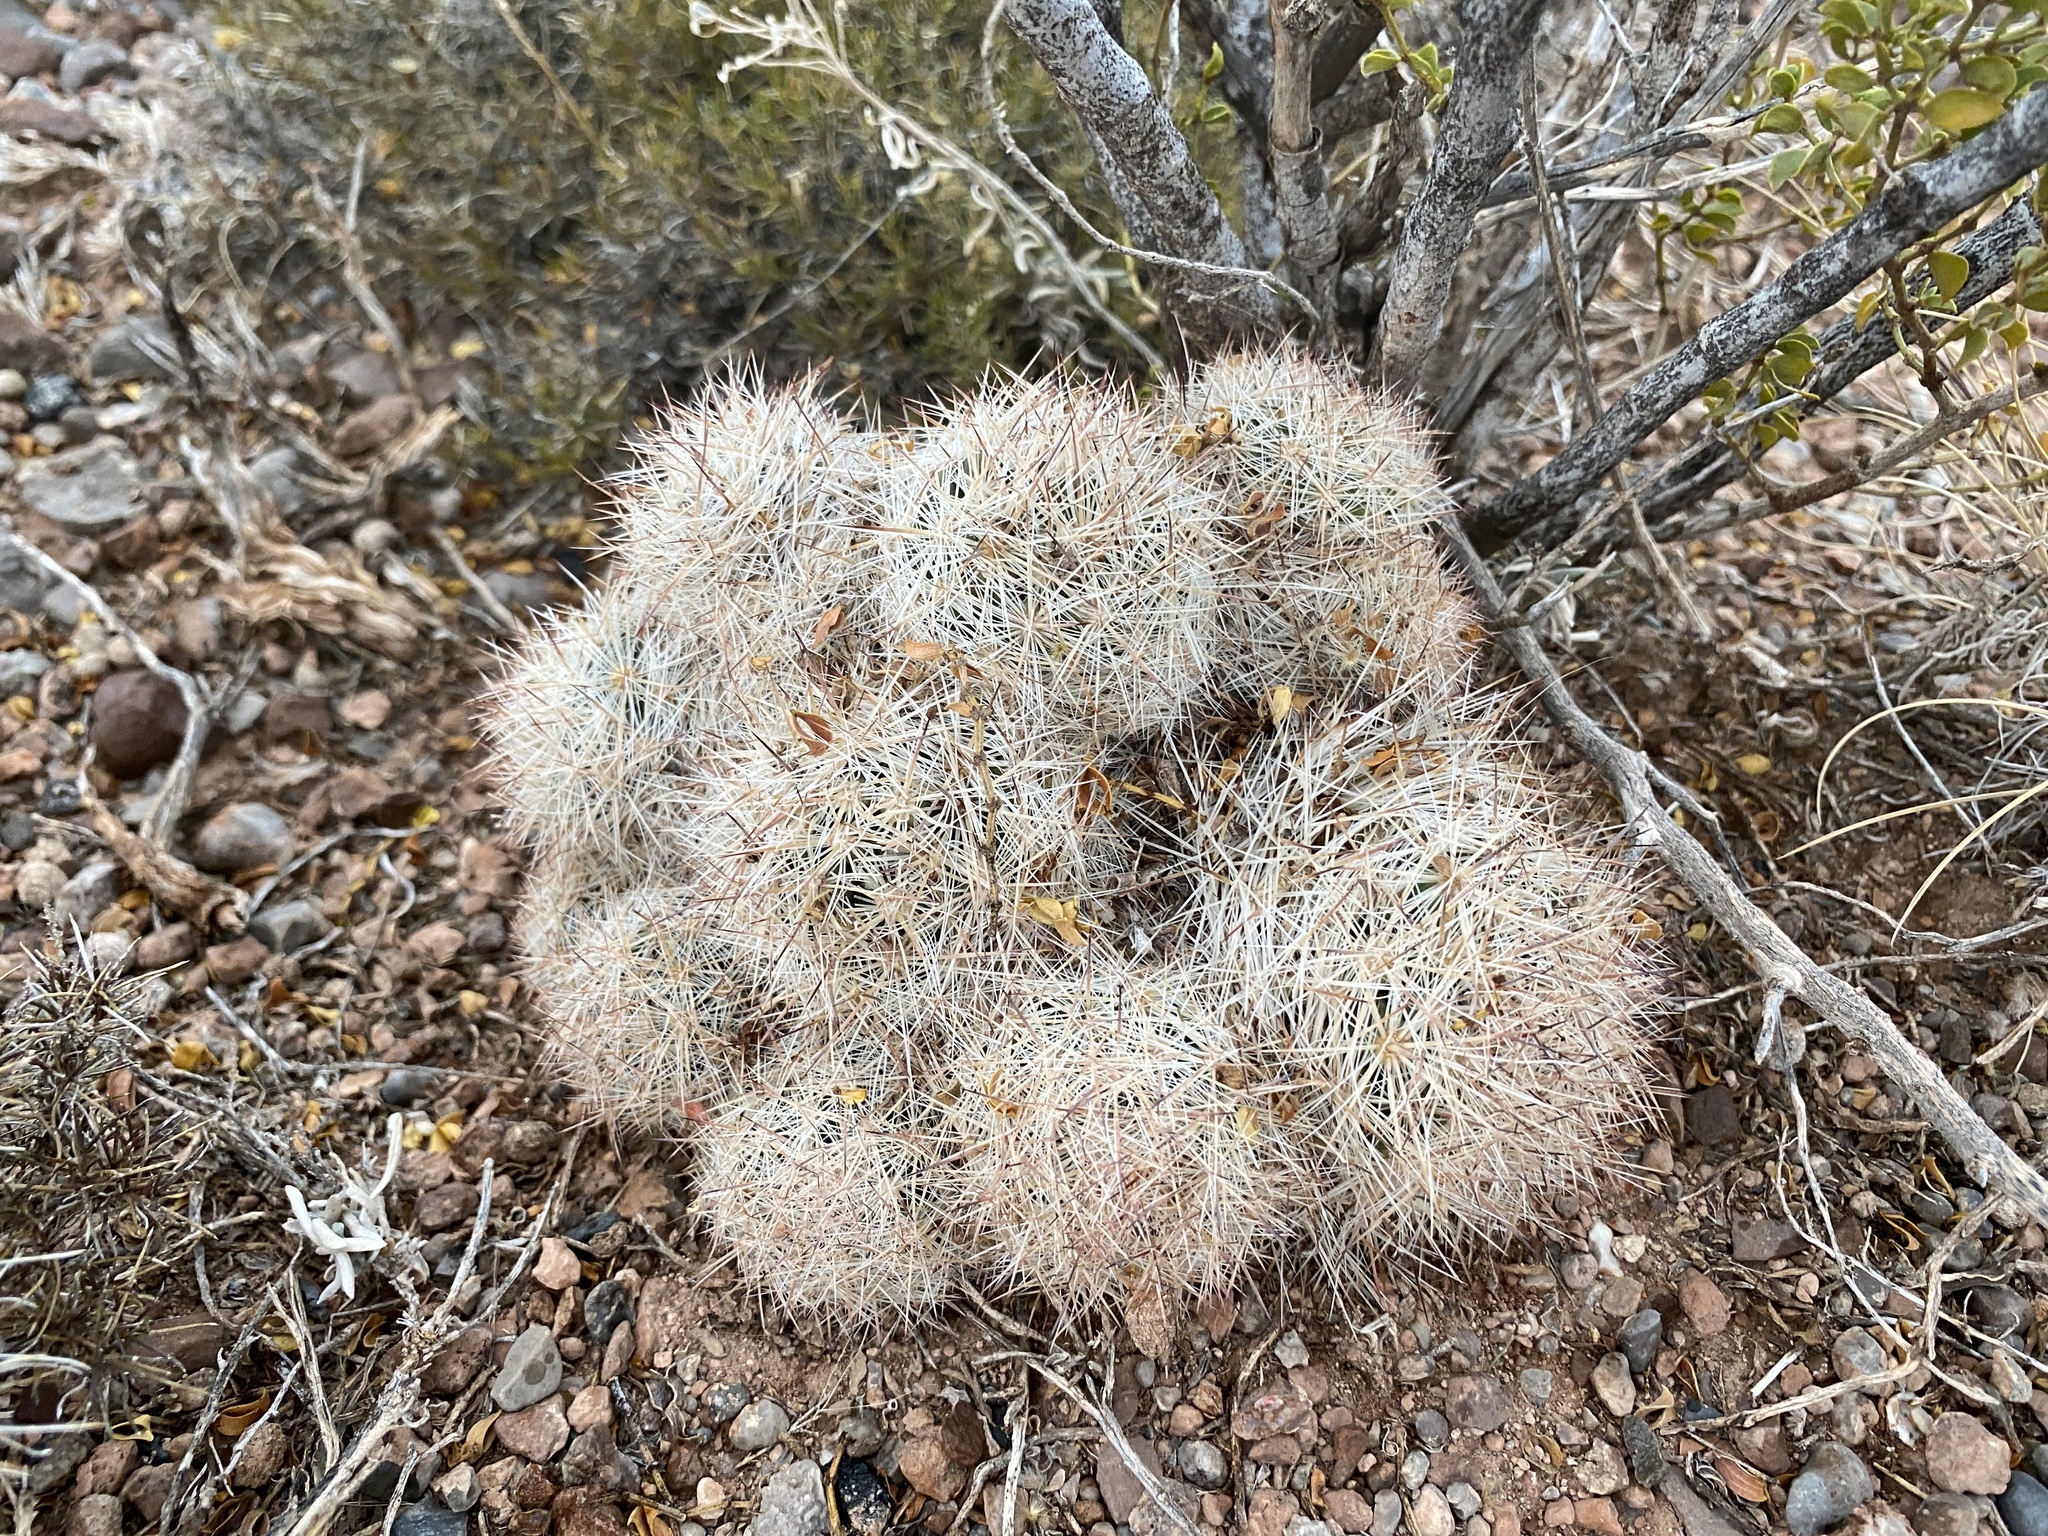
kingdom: Plantae
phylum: Tracheophyta
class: Magnoliopsida
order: Caryophyllales
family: Cactaceae
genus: Pelecyphora
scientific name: Pelecyphora sneedii
